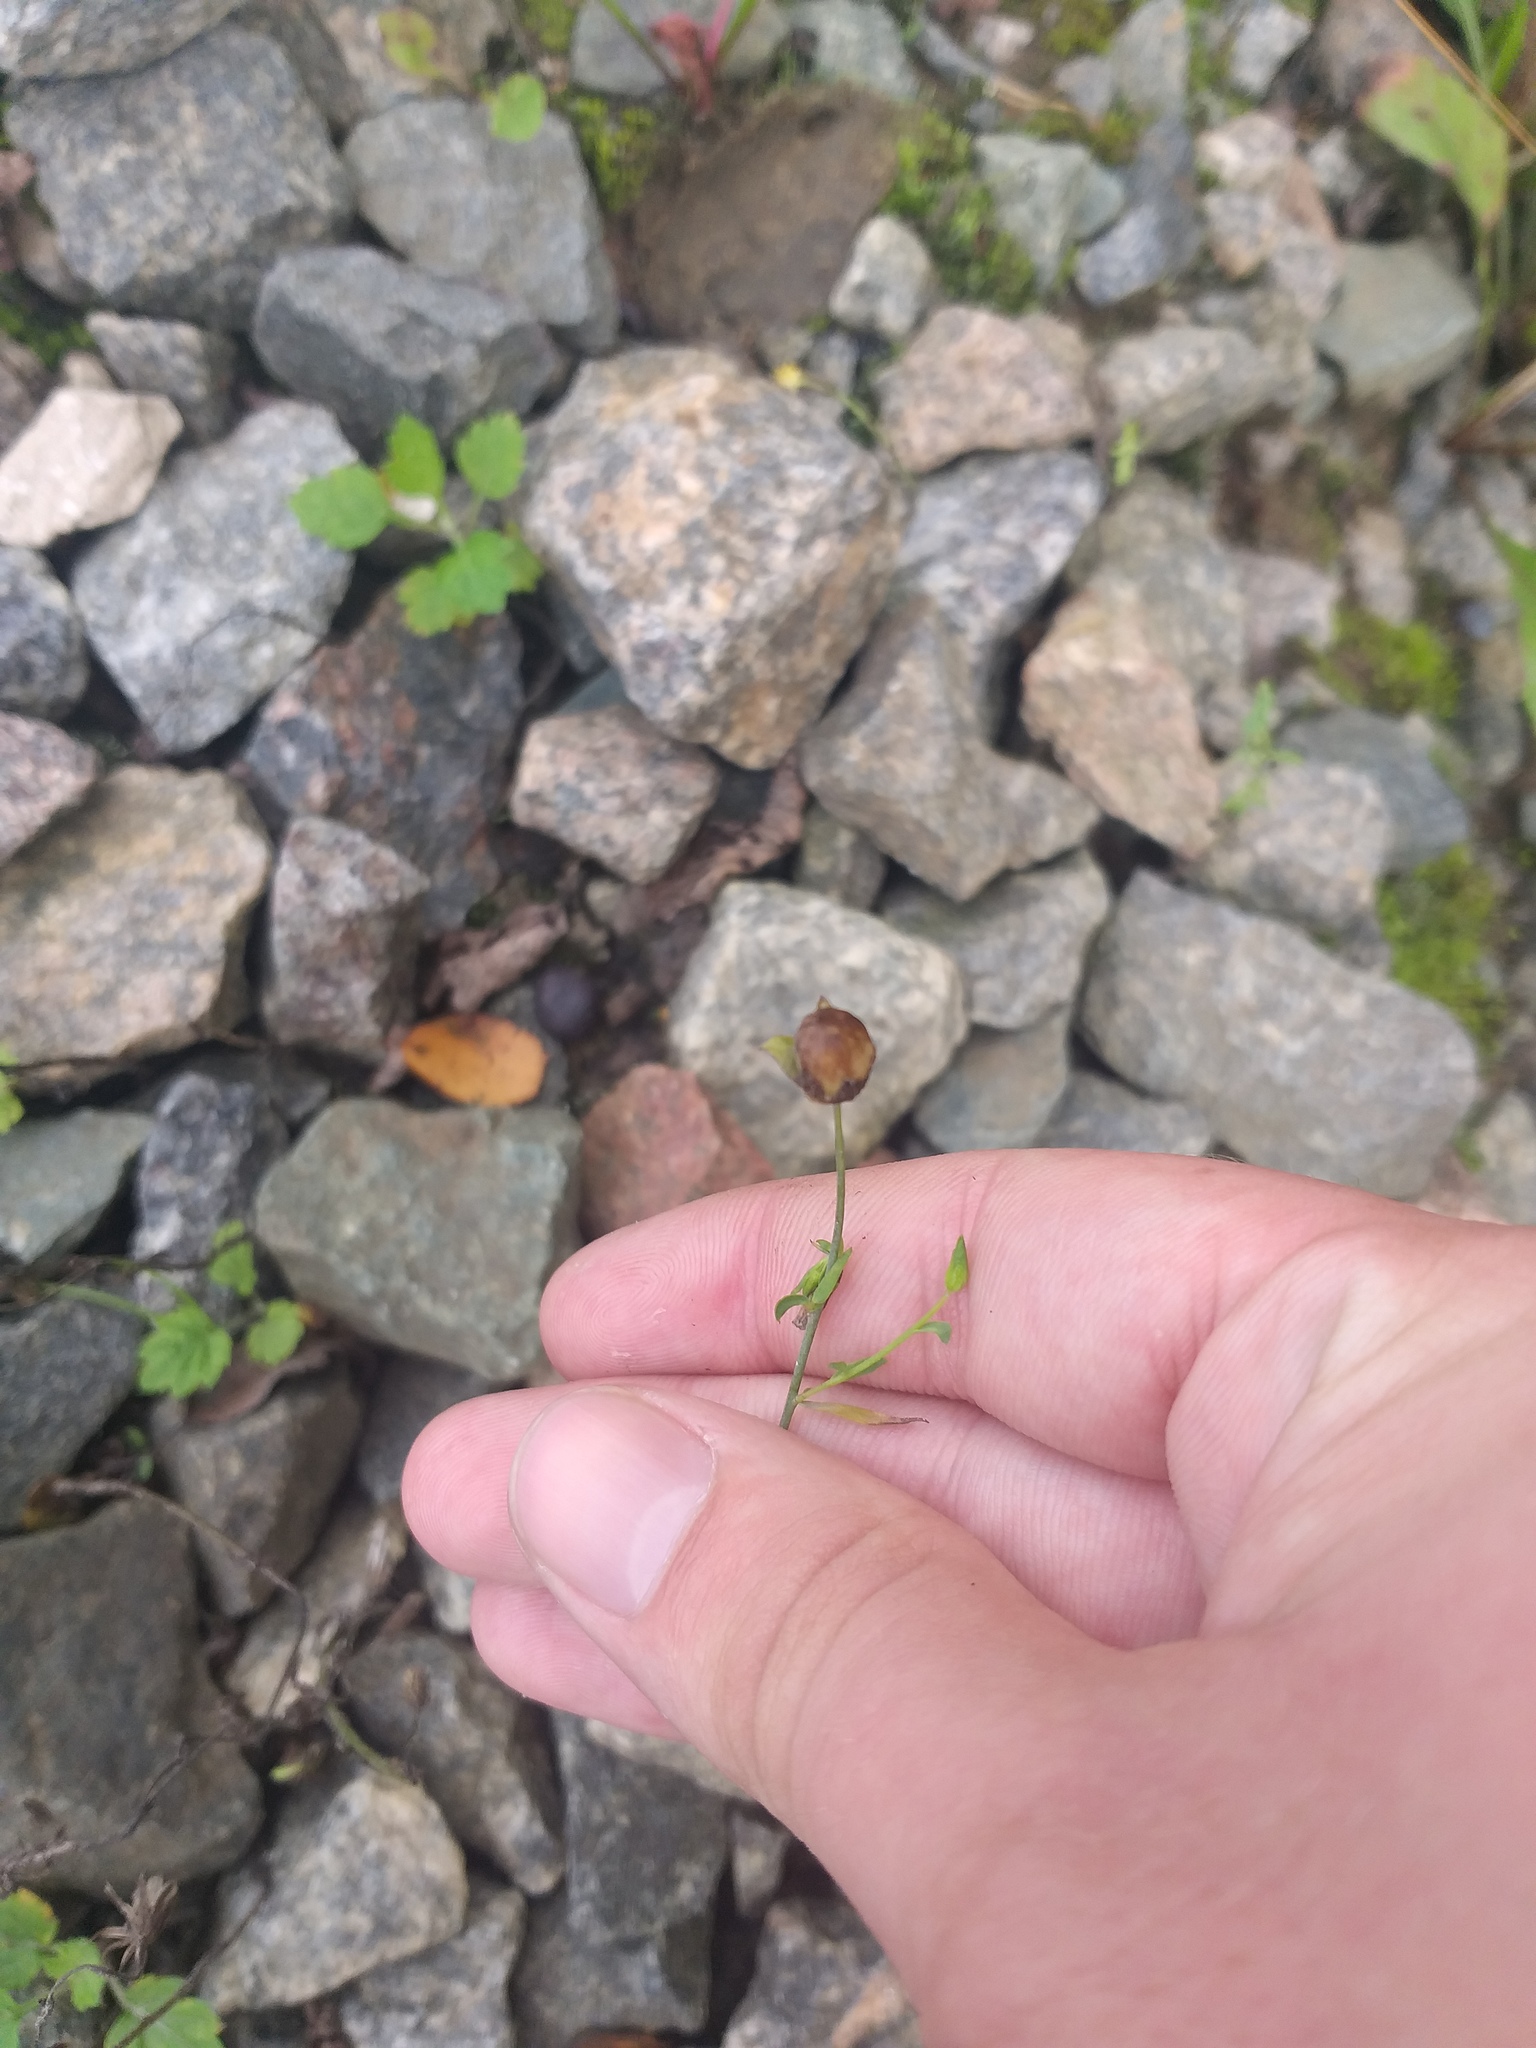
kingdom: Plantae
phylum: Tracheophyta
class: Magnoliopsida
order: Malpighiales
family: Linaceae
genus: Linum
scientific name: Linum usitatissimum
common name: Flax
